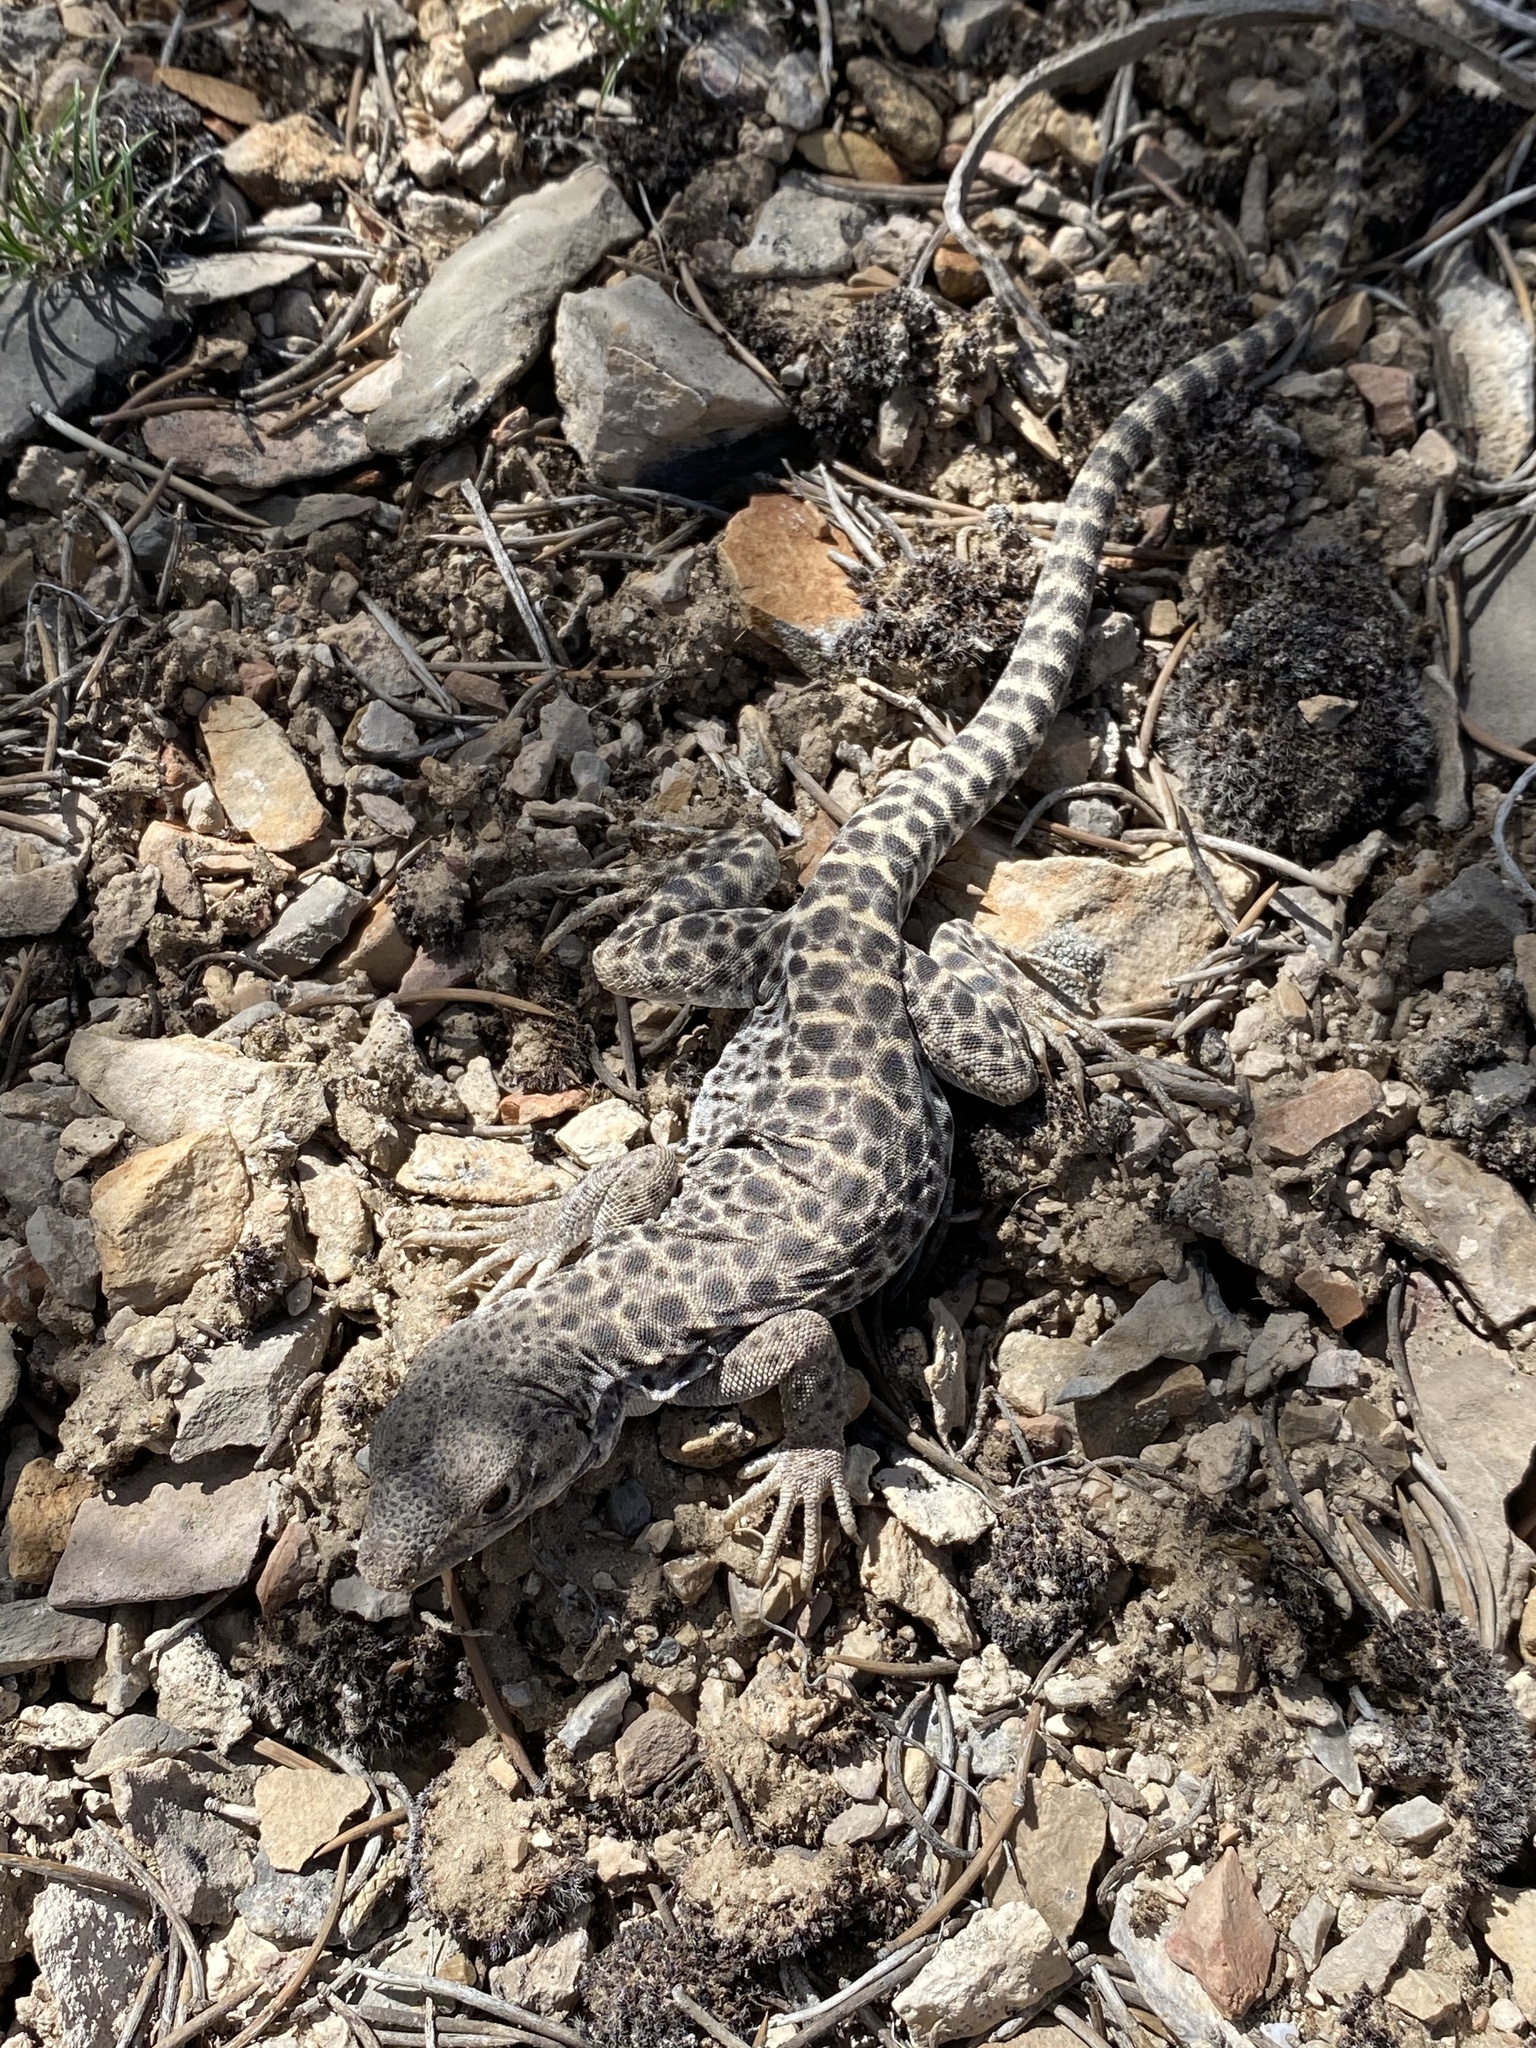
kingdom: Animalia
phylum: Chordata
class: Squamata
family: Crotaphytidae
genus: Gambelia
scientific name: Gambelia wislizenii
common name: Longnose leopard lizard
